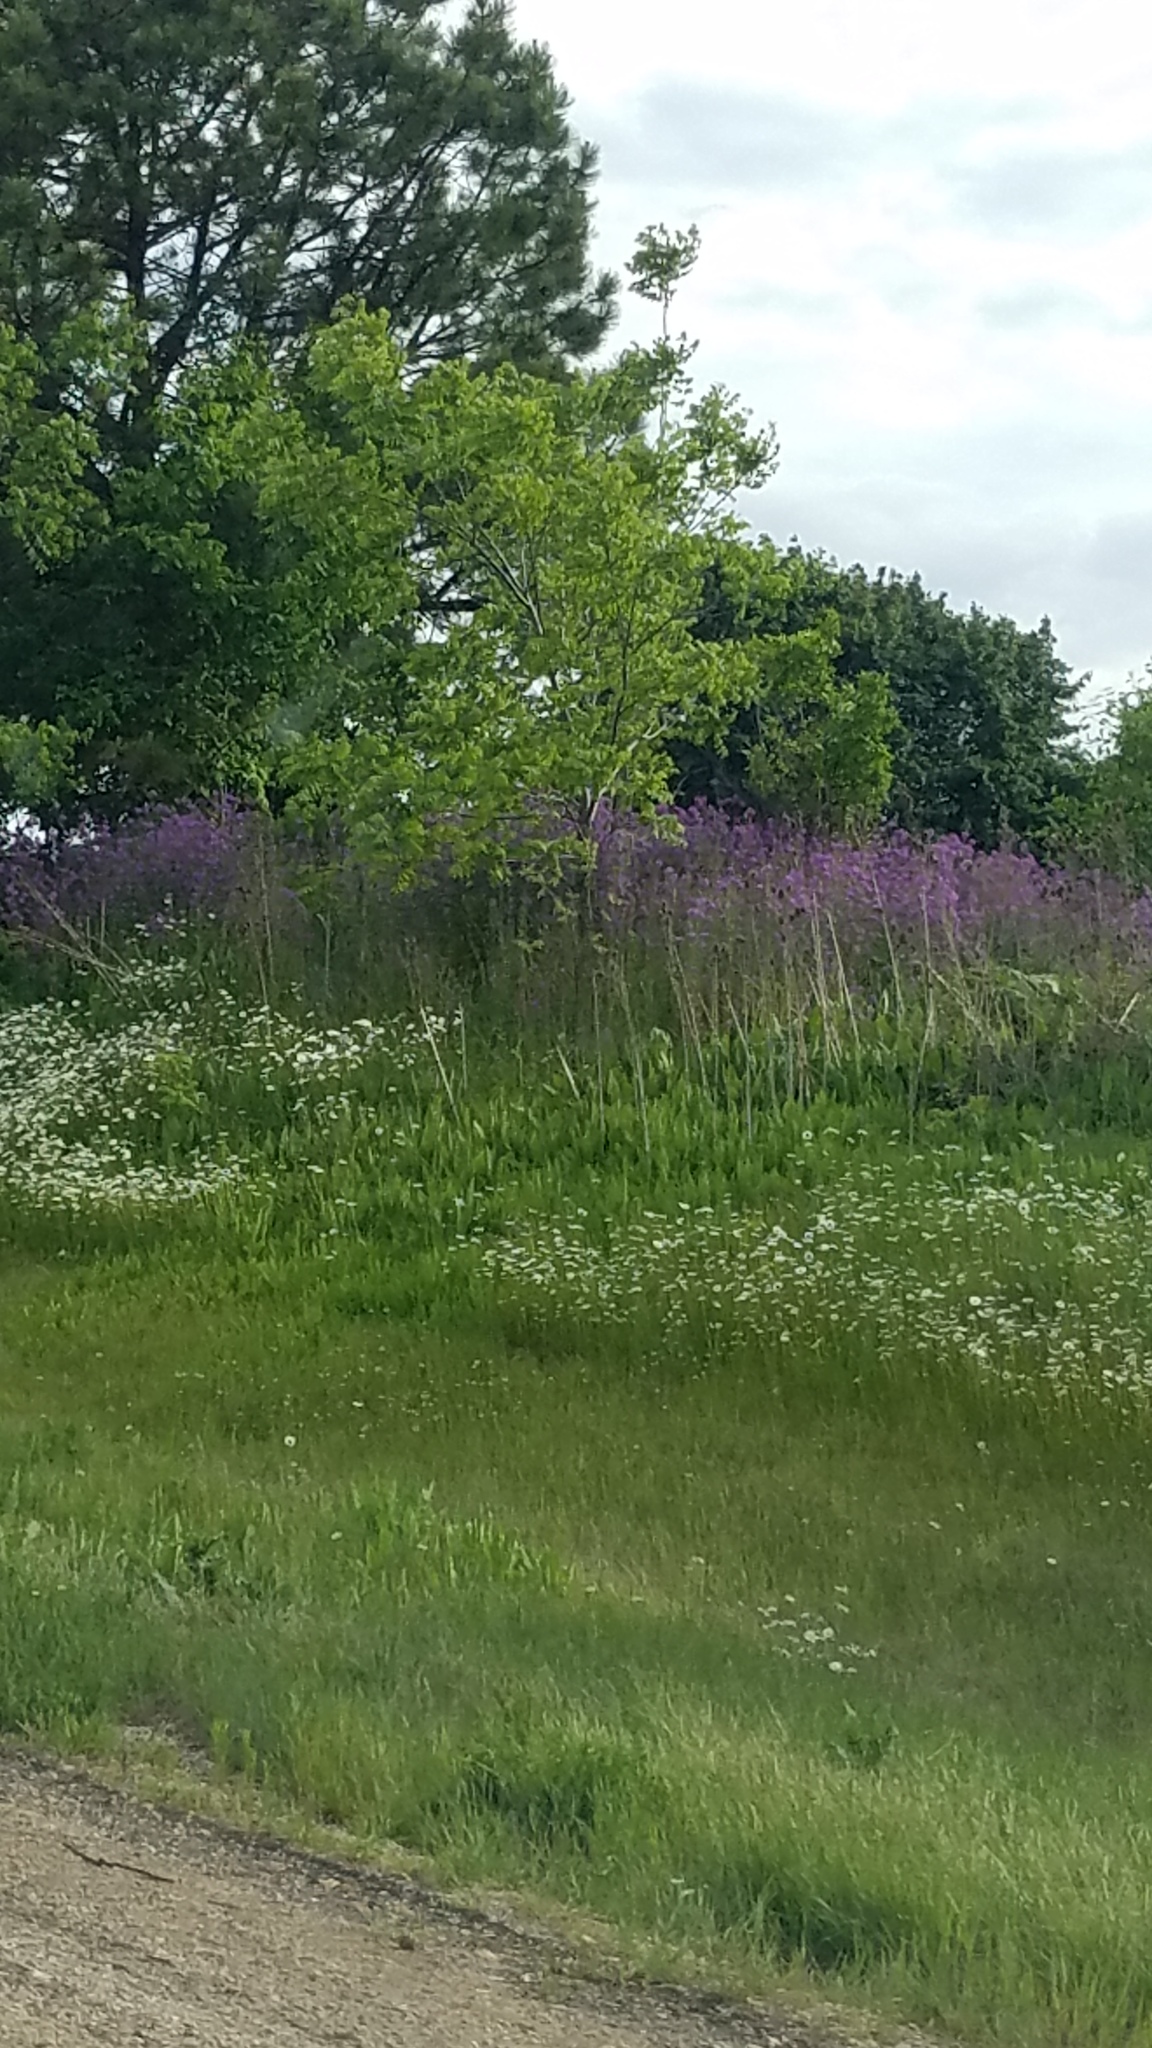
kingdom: Plantae
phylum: Tracheophyta
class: Magnoliopsida
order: Brassicales
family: Brassicaceae
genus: Hesperis
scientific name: Hesperis matronalis
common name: Dame's-violet
